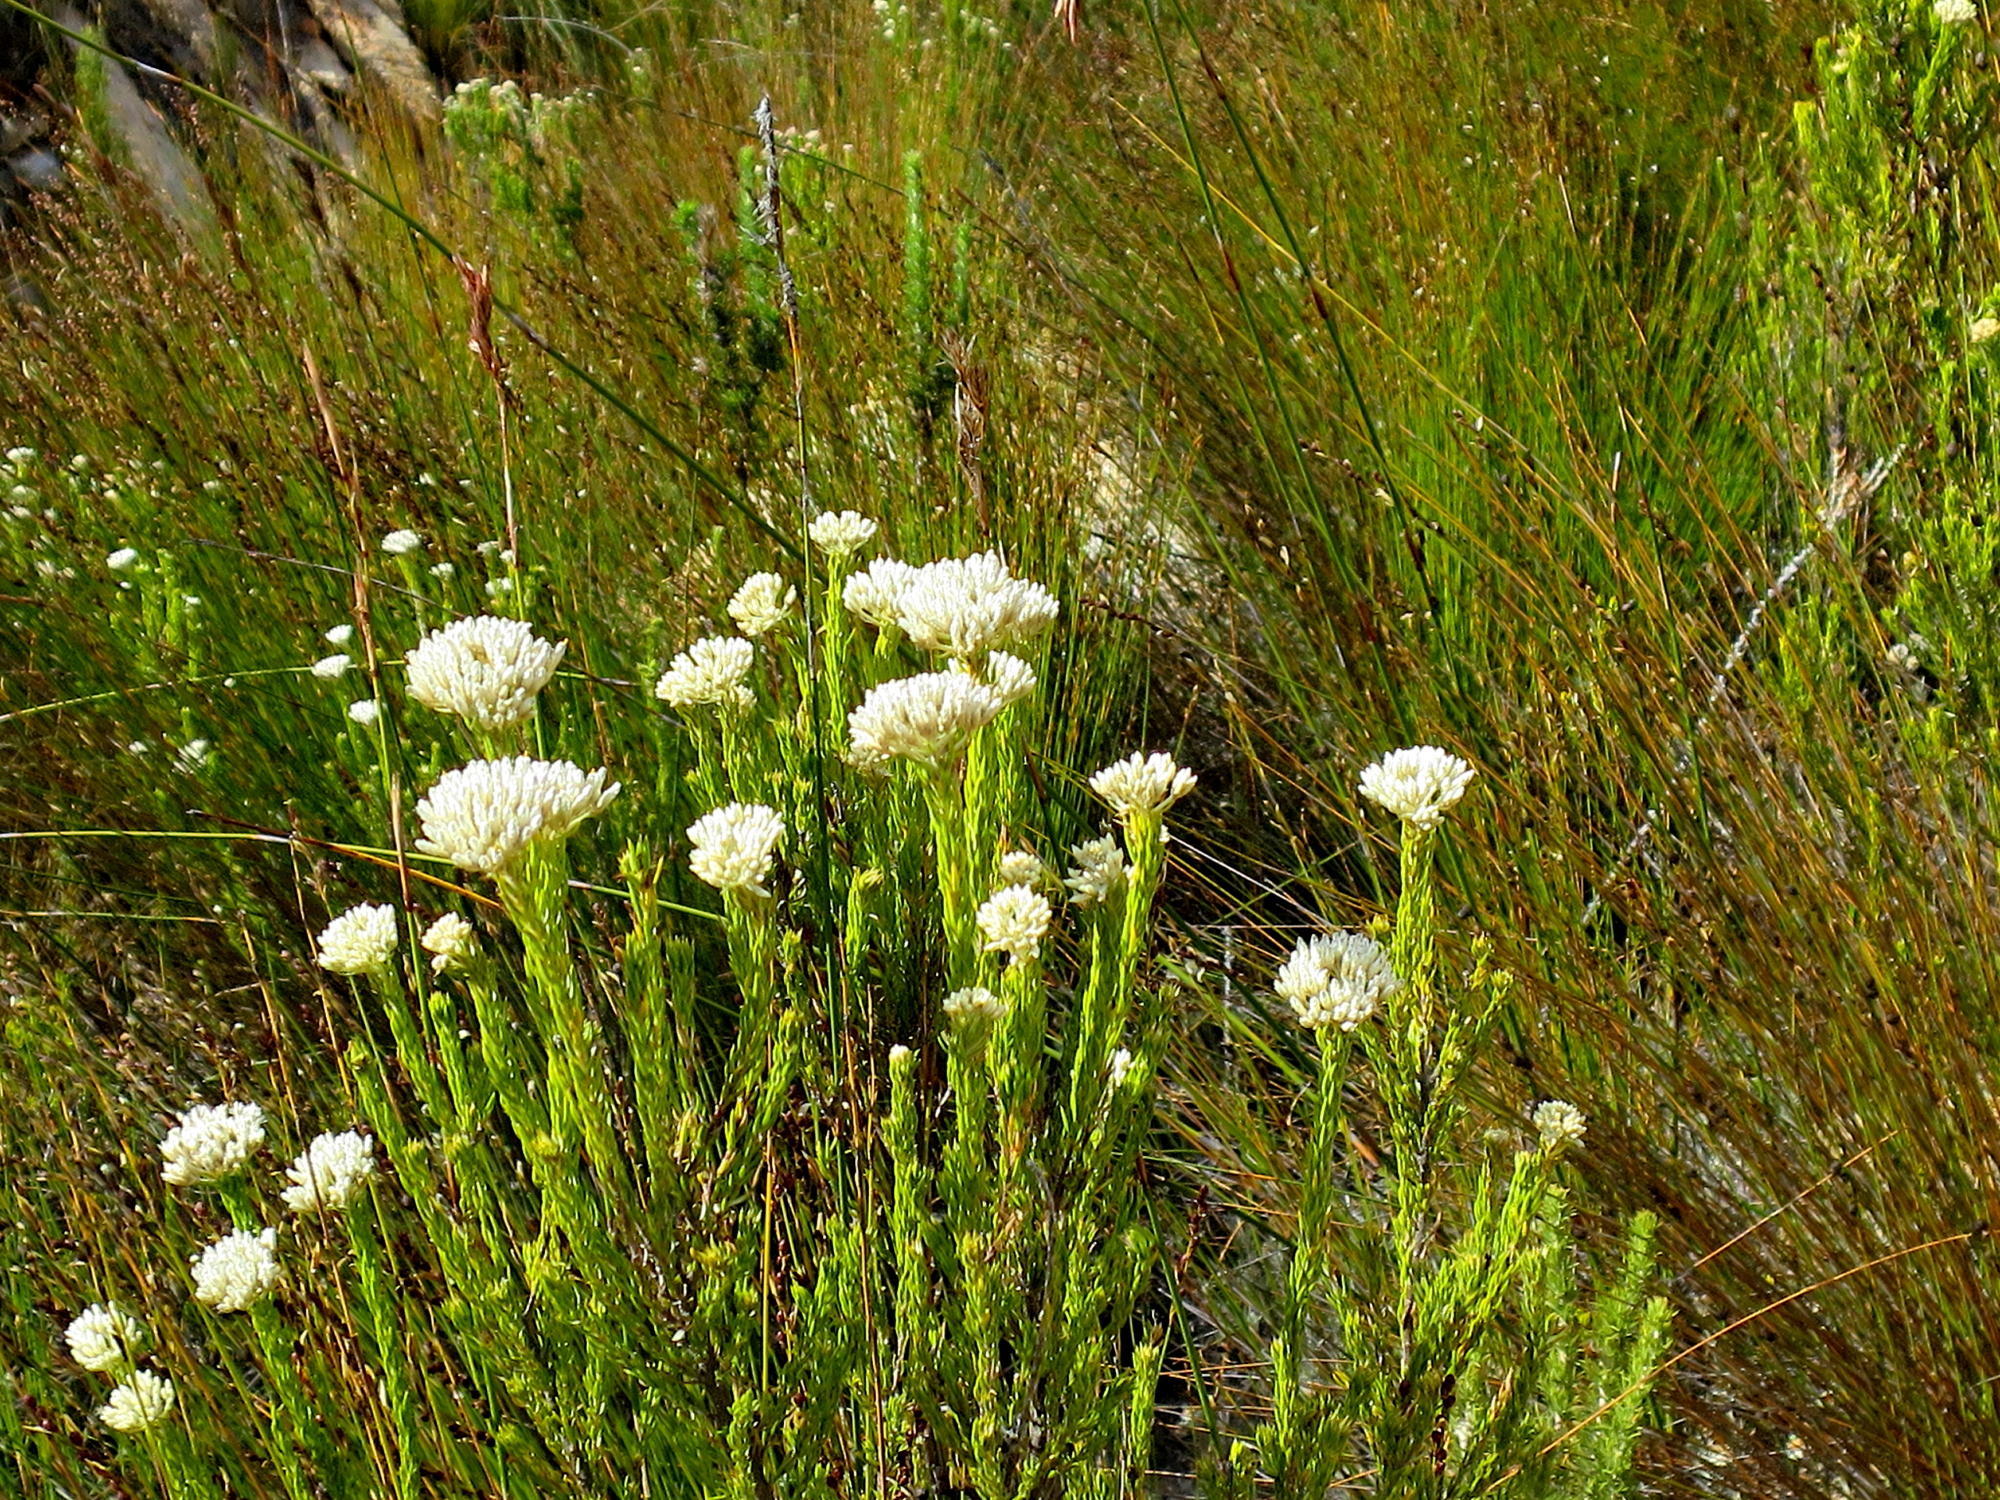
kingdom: Plantae
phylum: Tracheophyta
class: Magnoliopsida
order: Asterales
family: Asteraceae
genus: Metalasia
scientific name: Metalasia pallida
